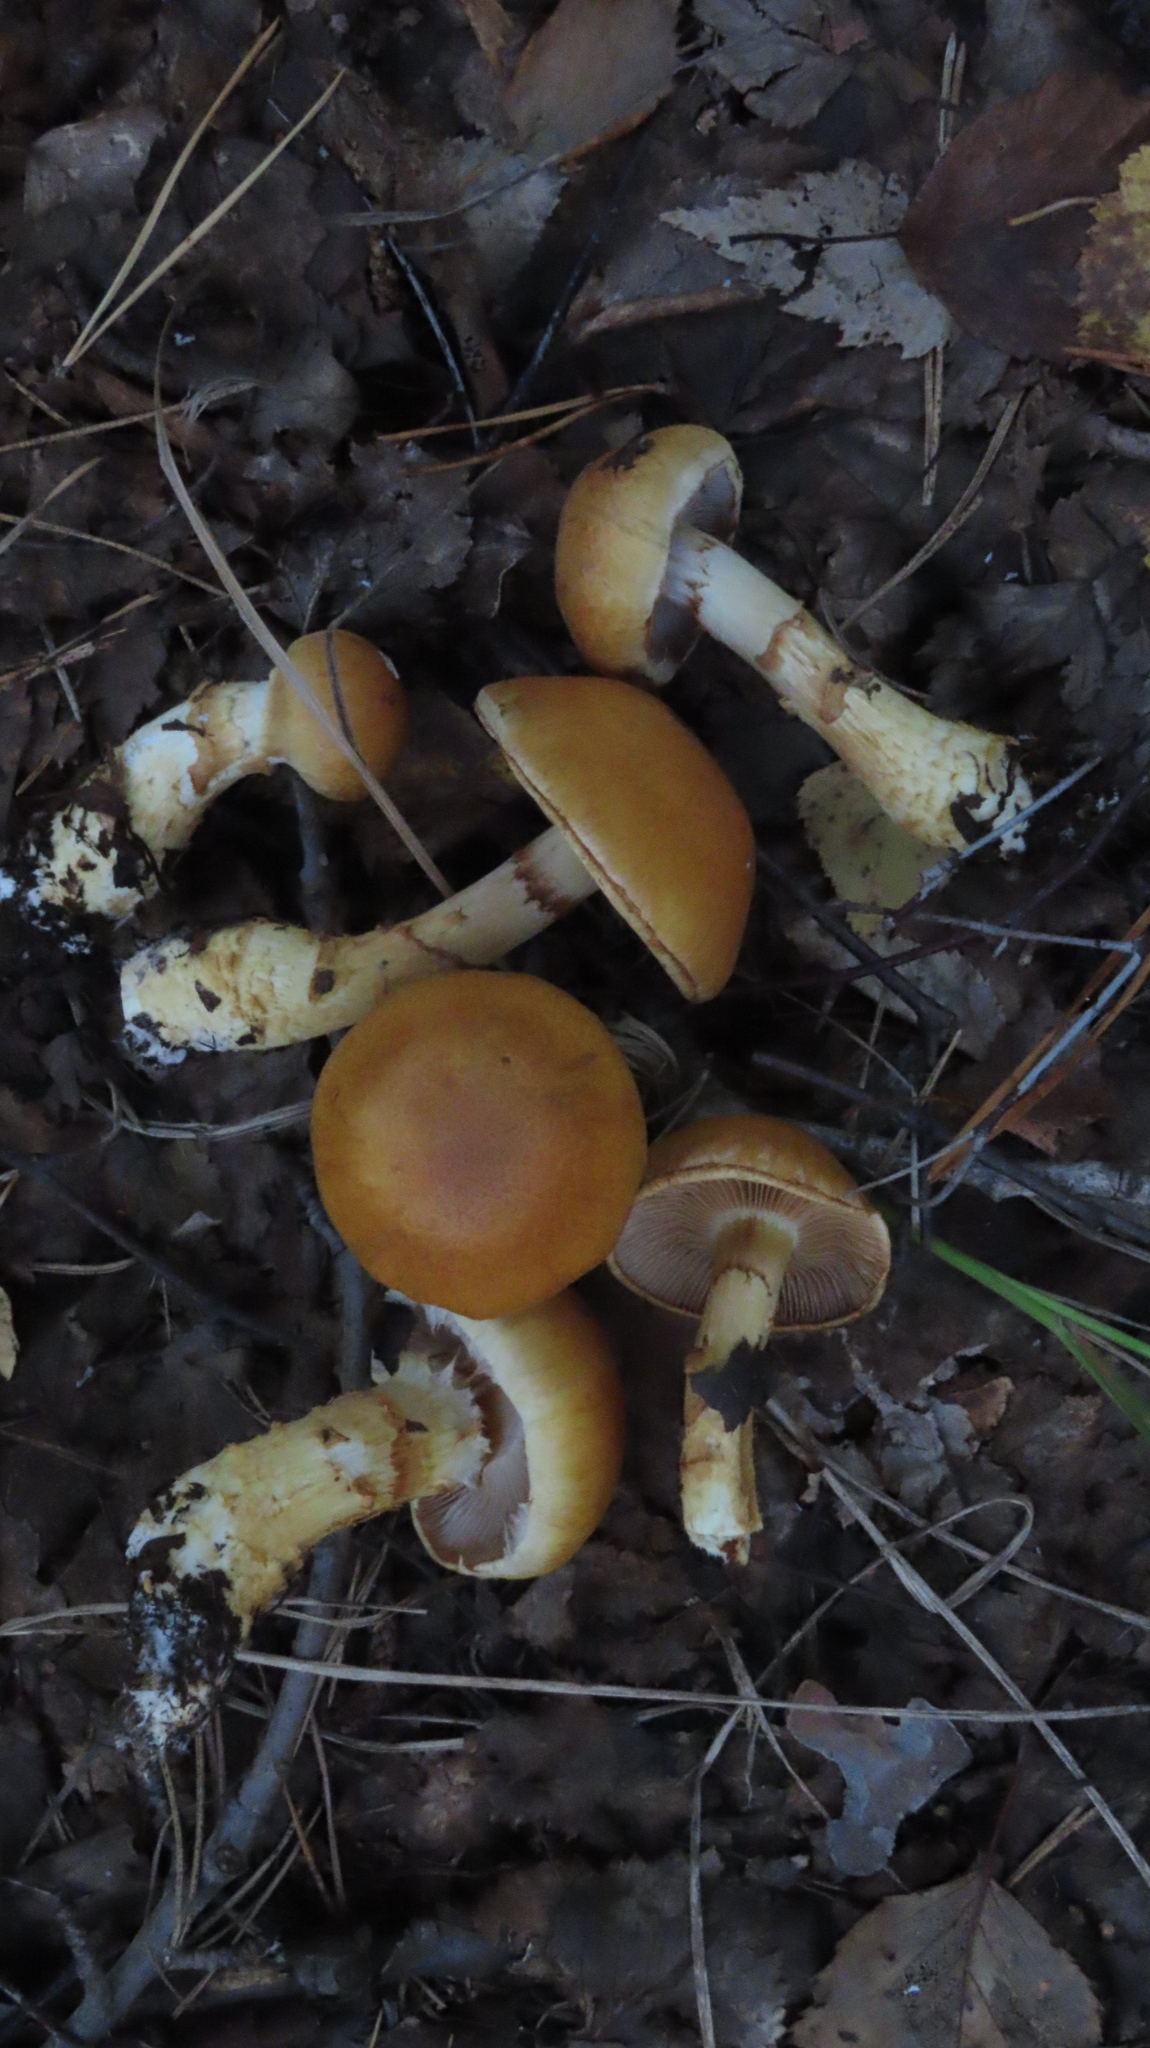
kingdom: Fungi
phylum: Basidiomycota
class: Agaricomycetes
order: Agaricales
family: Cortinariaceae
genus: Phlegmacium
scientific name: Phlegmacium triumphans
